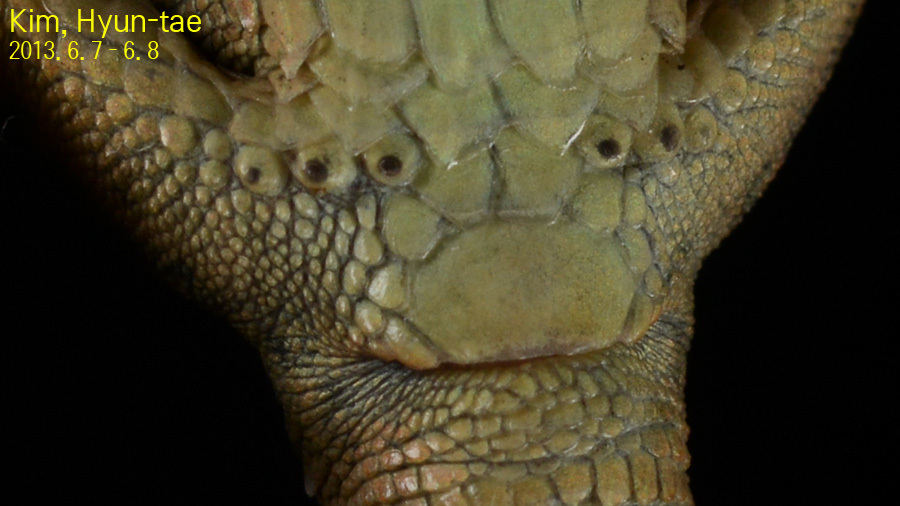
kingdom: Animalia
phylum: Chordata
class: Squamata
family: Lacertidae
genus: Takydromus
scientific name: Takydromus amurensis
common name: Amur grass lizard
